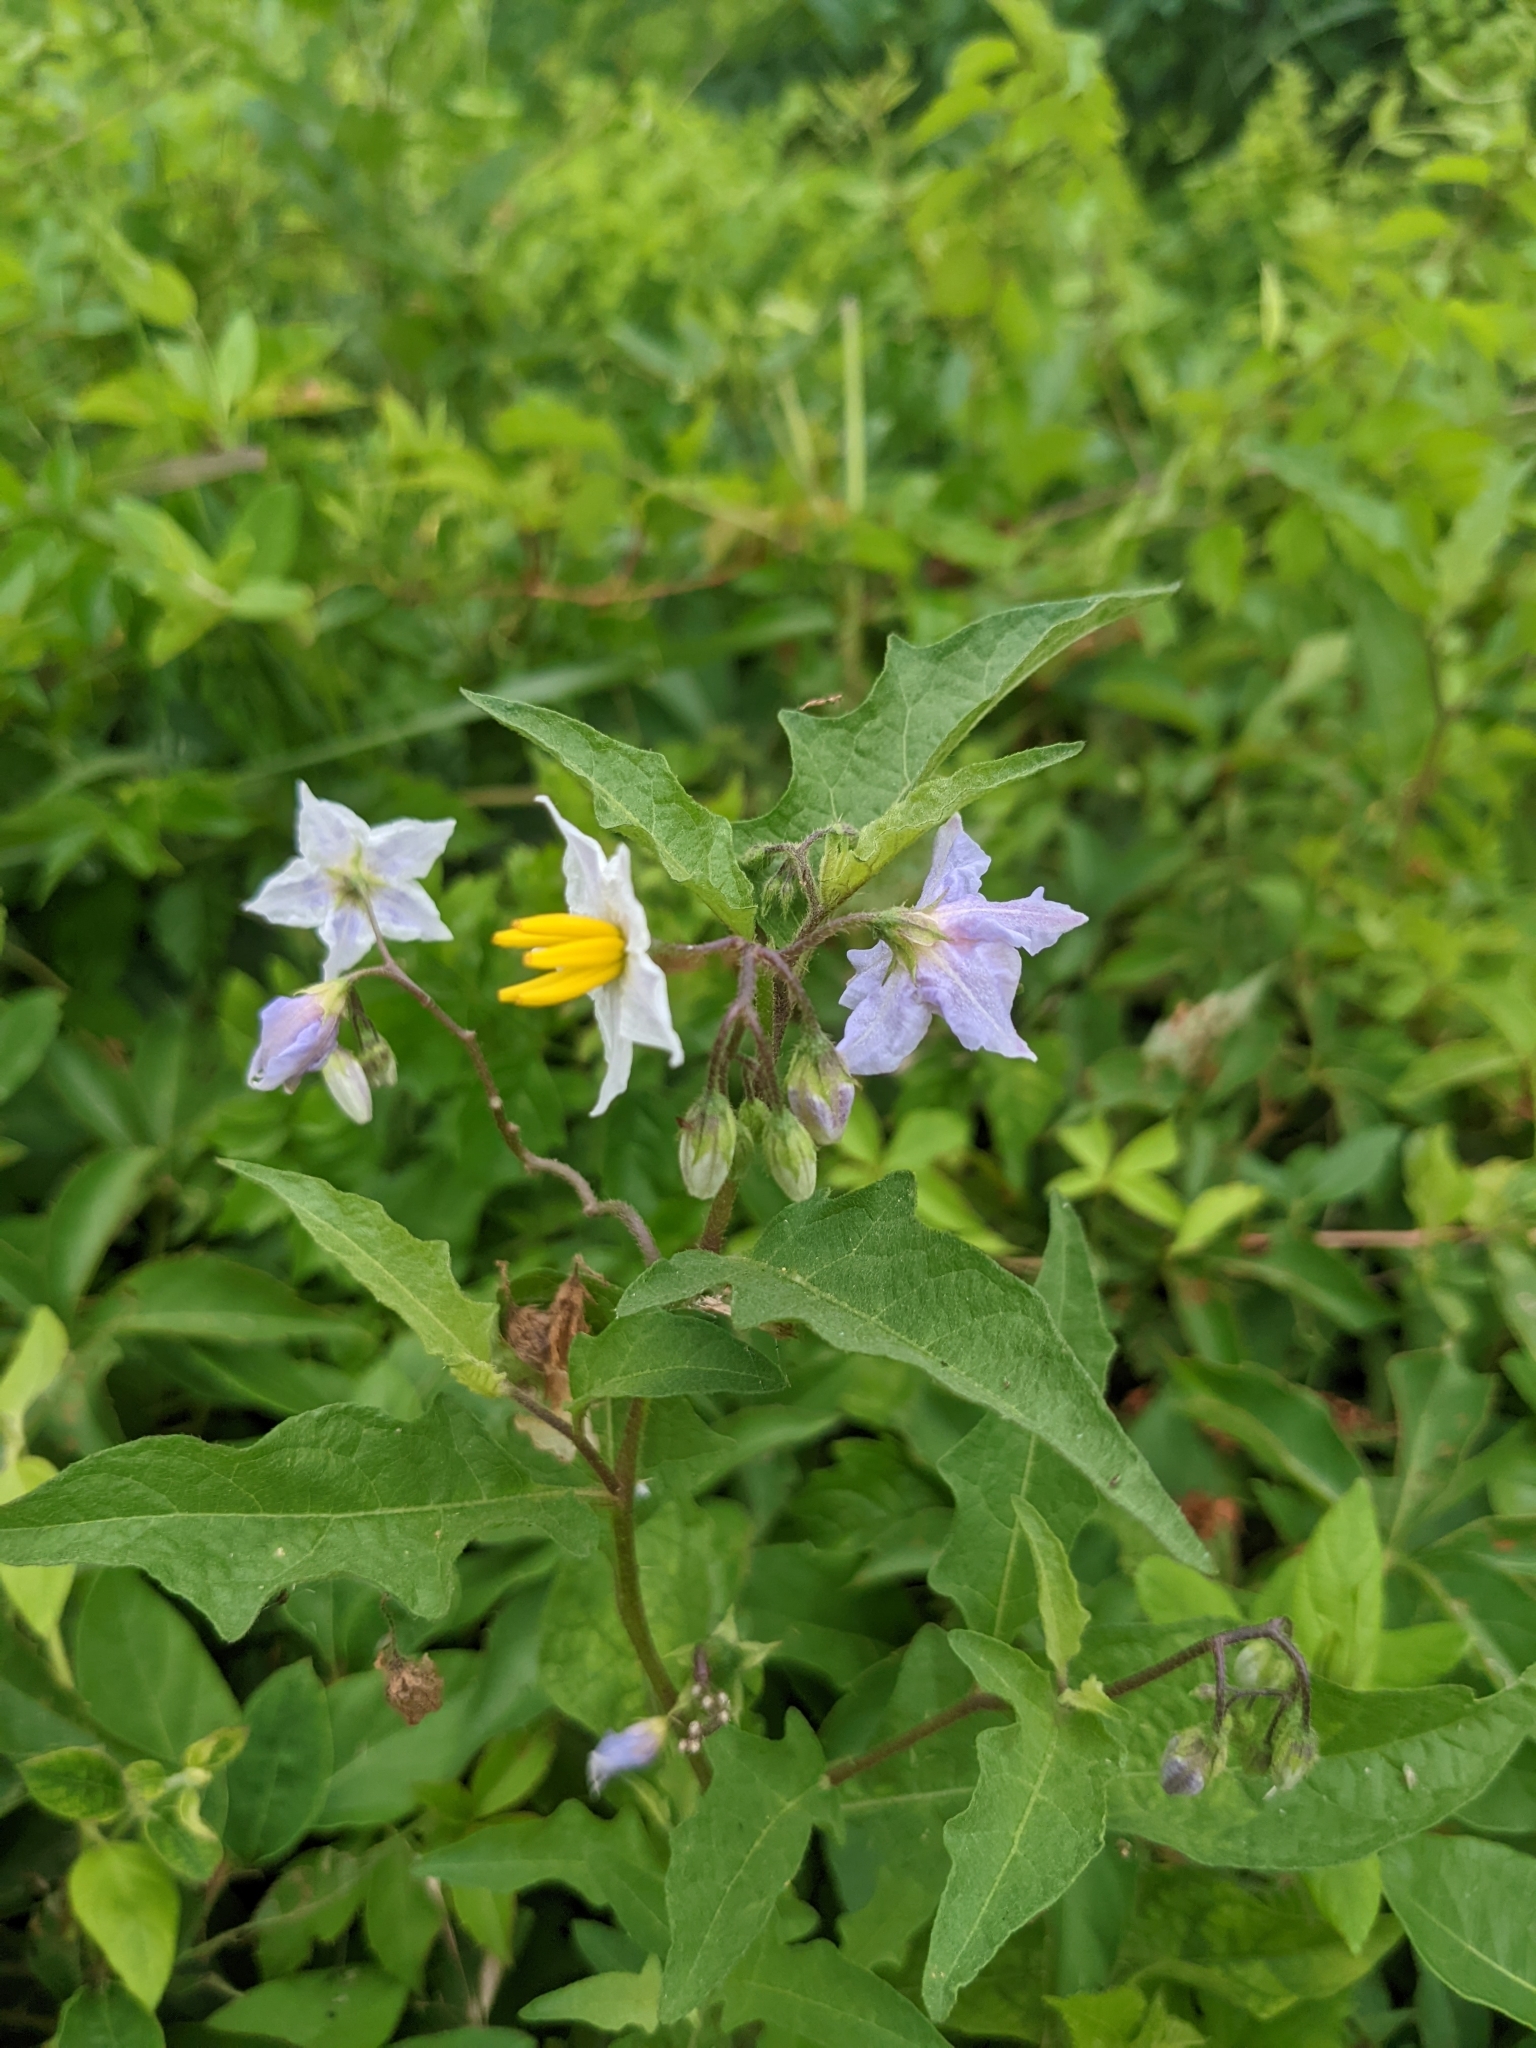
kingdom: Plantae
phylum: Tracheophyta
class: Magnoliopsida
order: Solanales
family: Solanaceae
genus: Solanum
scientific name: Solanum carolinense
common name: Horse-nettle
